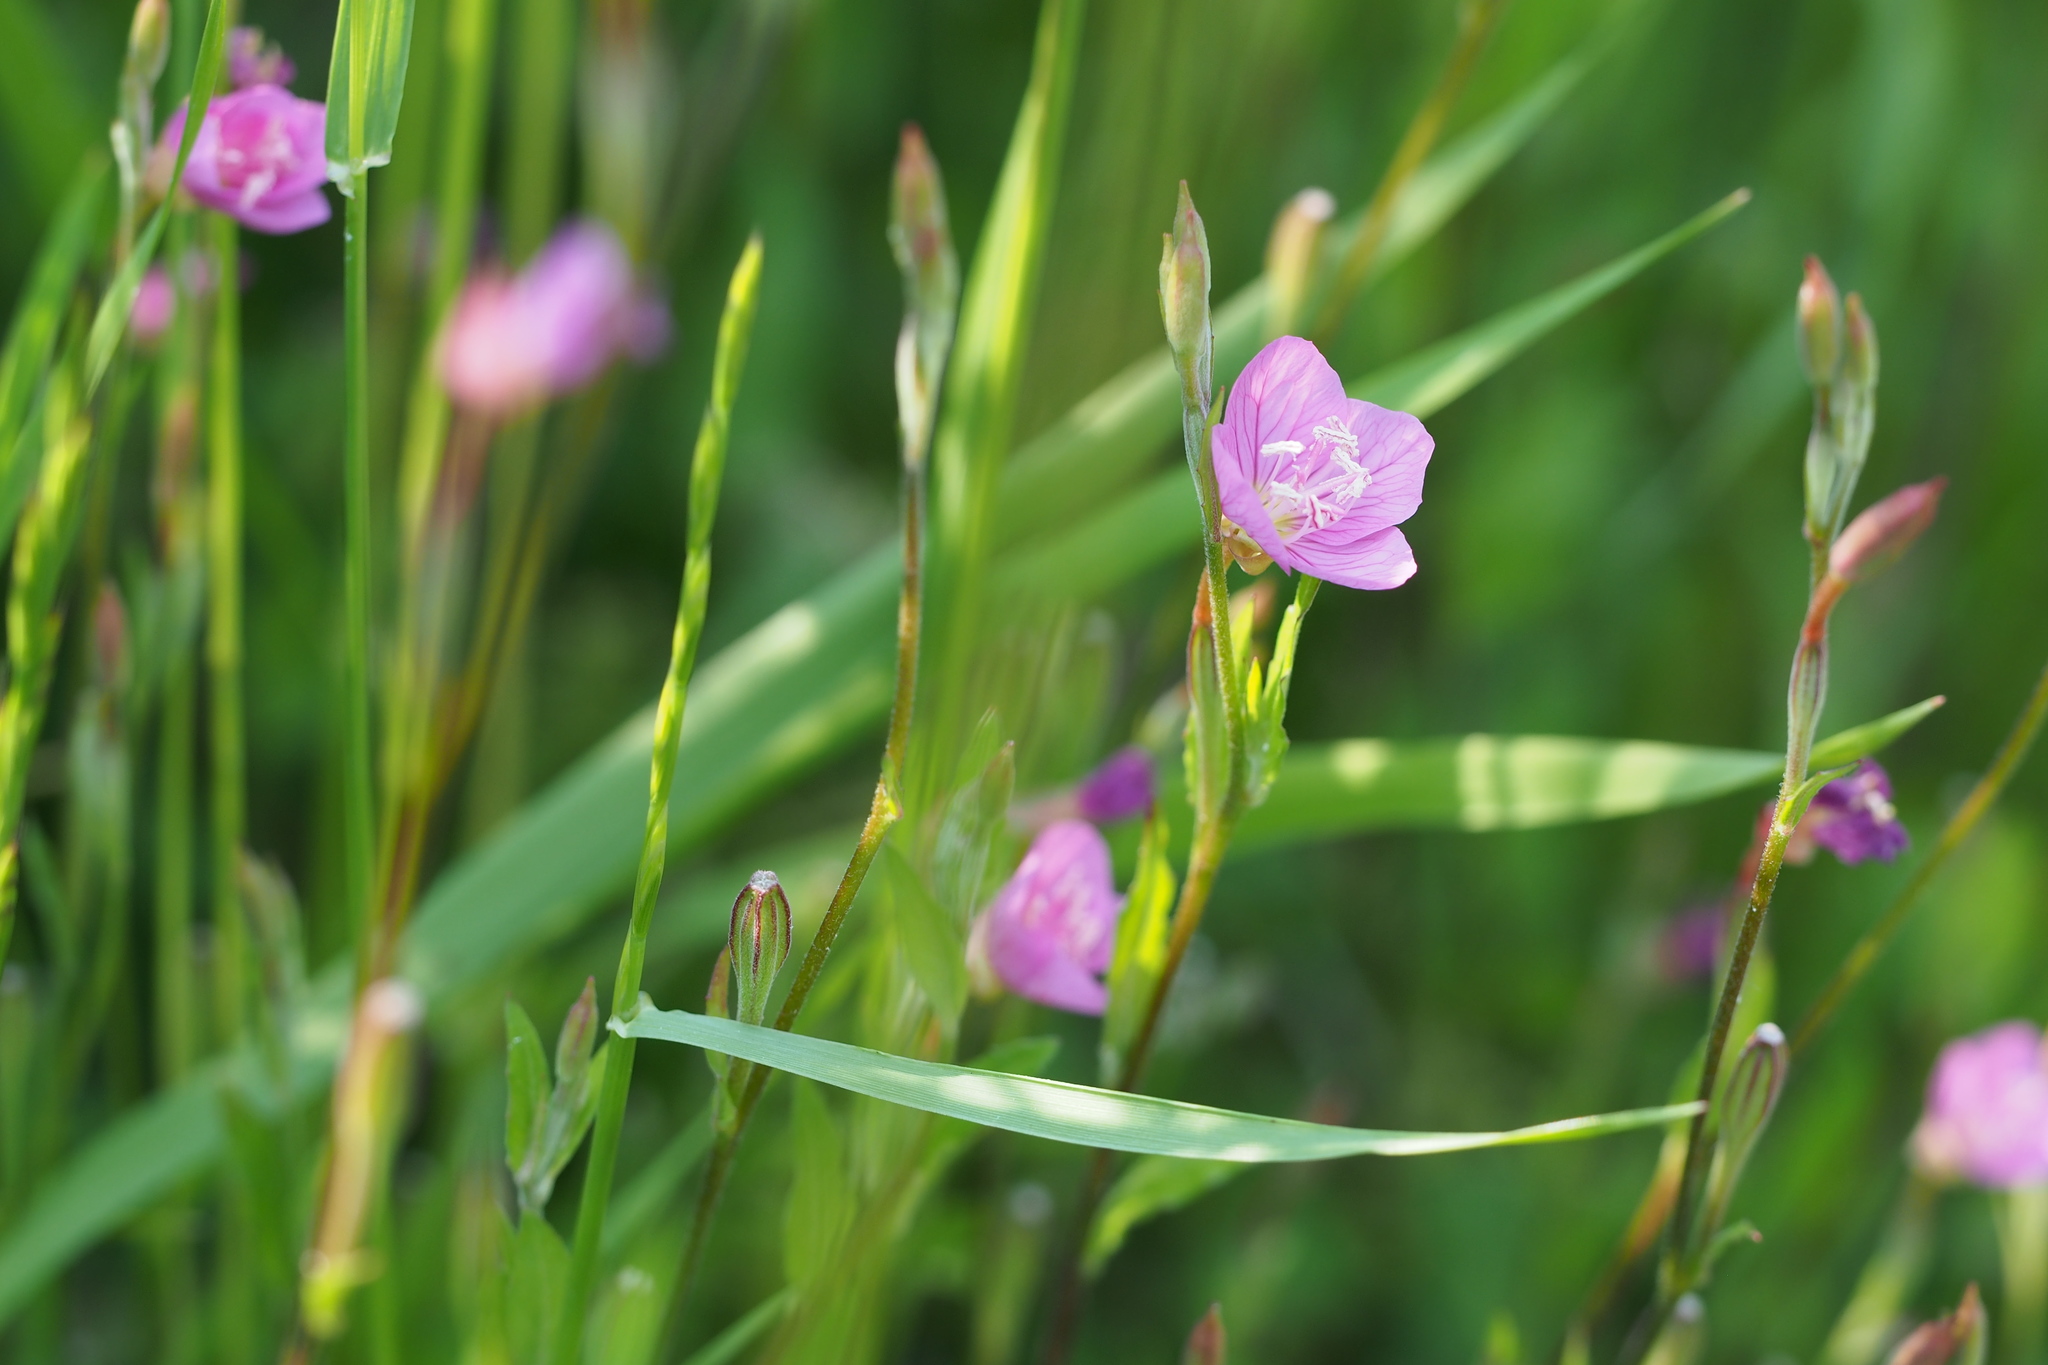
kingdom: Plantae
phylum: Tracheophyta
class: Magnoliopsida
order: Myrtales
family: Onagraceae
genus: Oenothera
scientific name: Oenothera rosea
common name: Rosy evening-primrose
